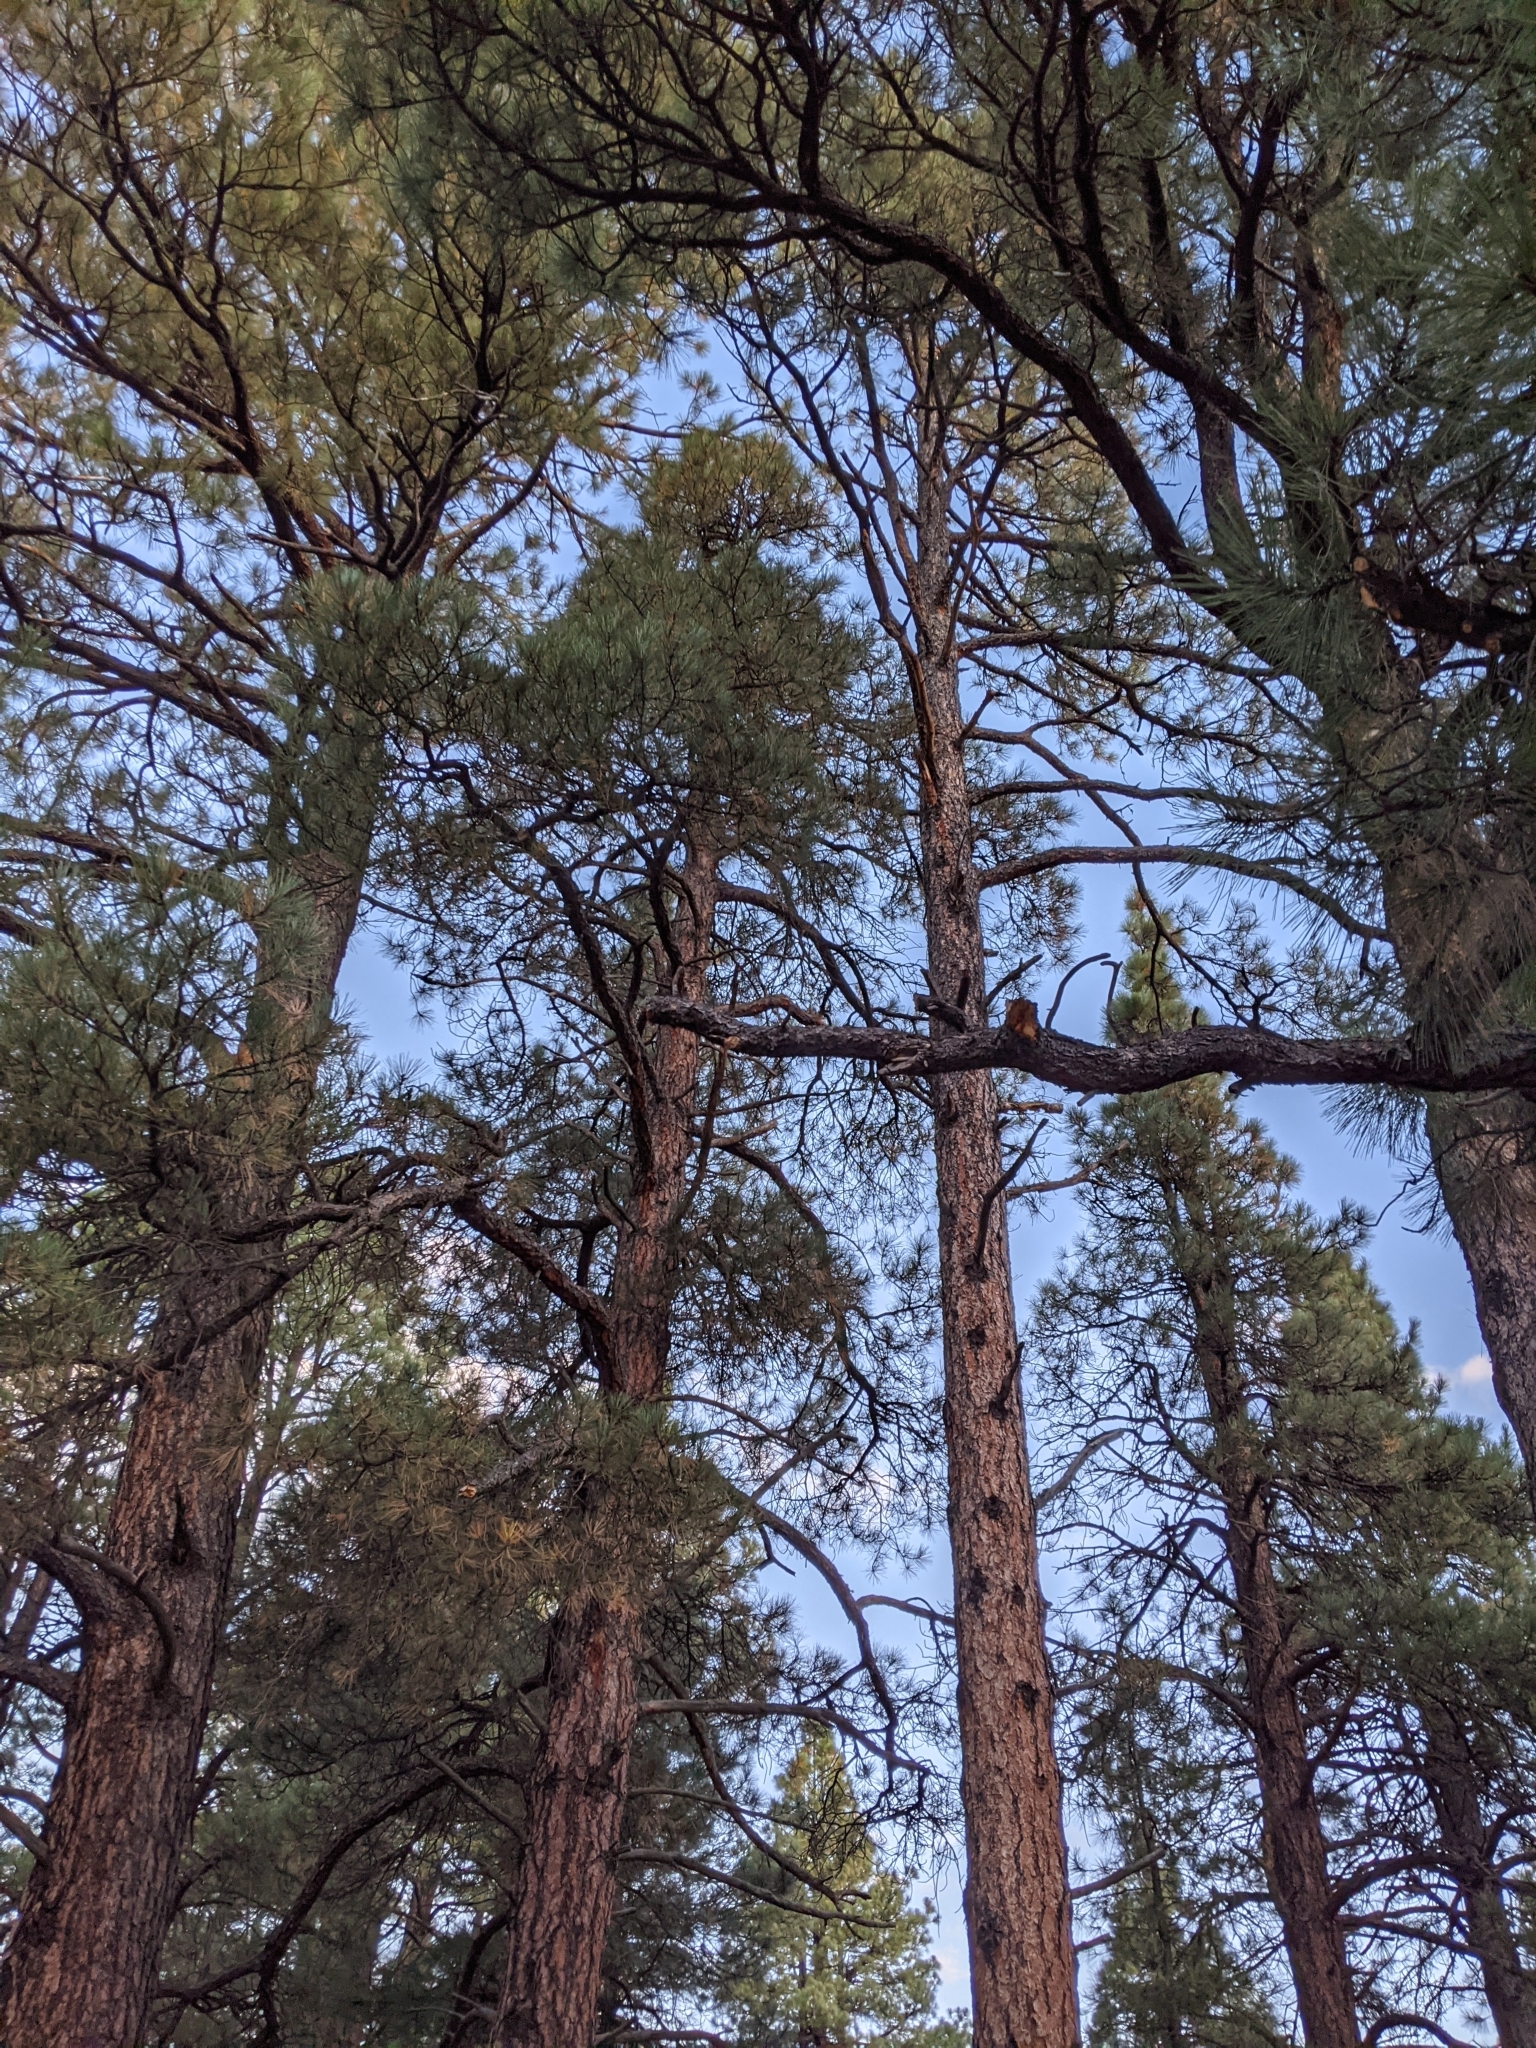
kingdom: Plantae
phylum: Tracheophyta
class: Pinopsida
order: Pinales
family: Pinaceae
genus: Pinus
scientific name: Pinus ponderosa
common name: Western yellow-pine
